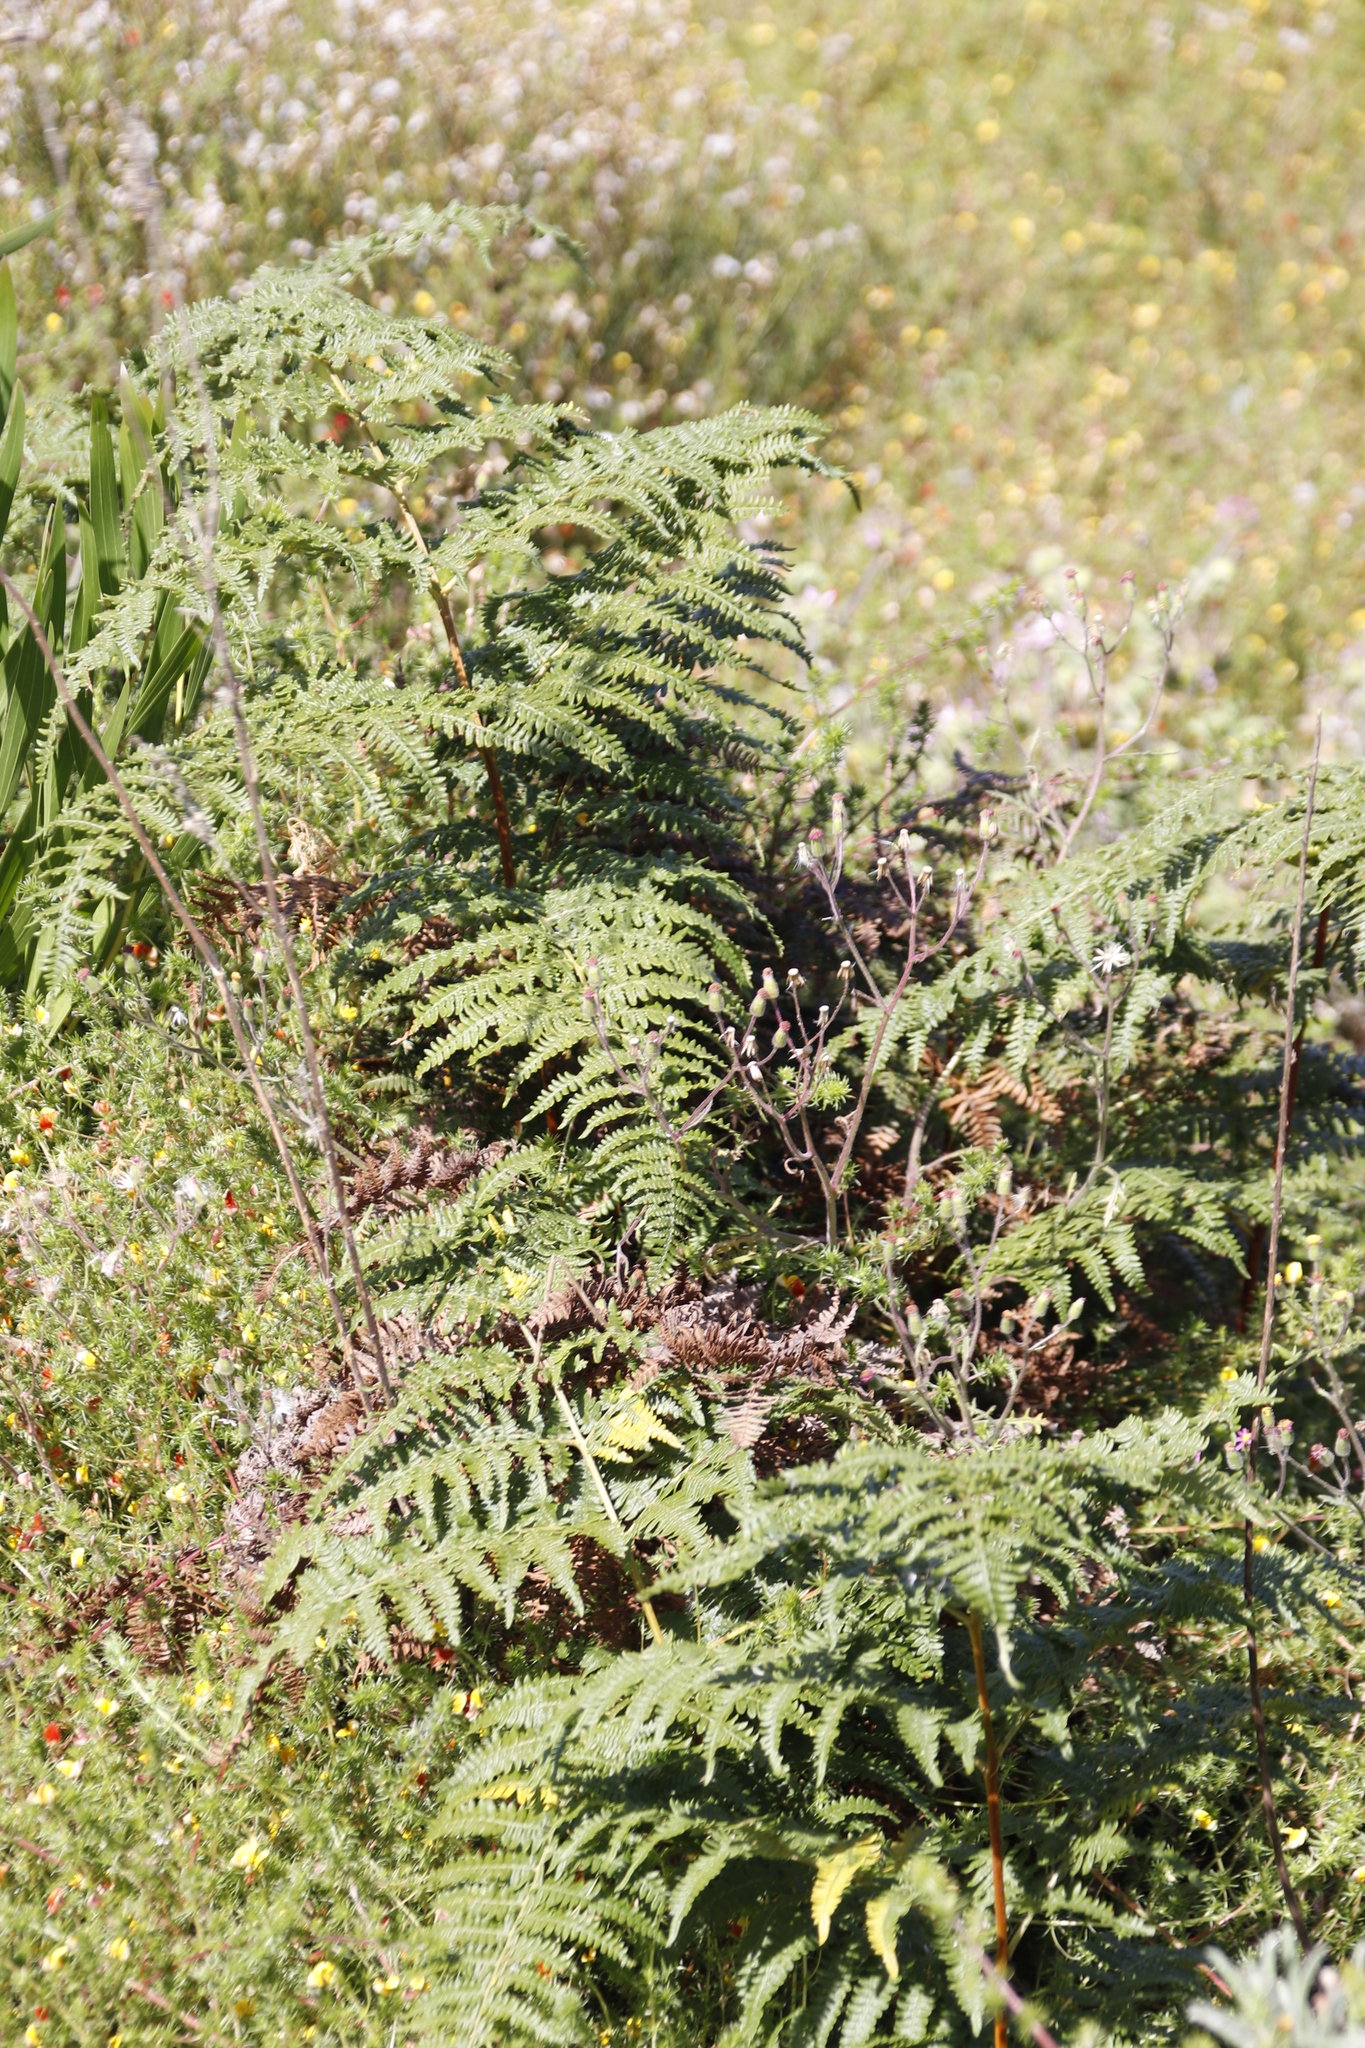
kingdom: Plantae
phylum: Tracheophyta
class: Polypodiopsida
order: Polypodiales
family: Dennstaedtiaceae
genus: Pteridium
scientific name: Pteridium aquilinum
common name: Bracken
